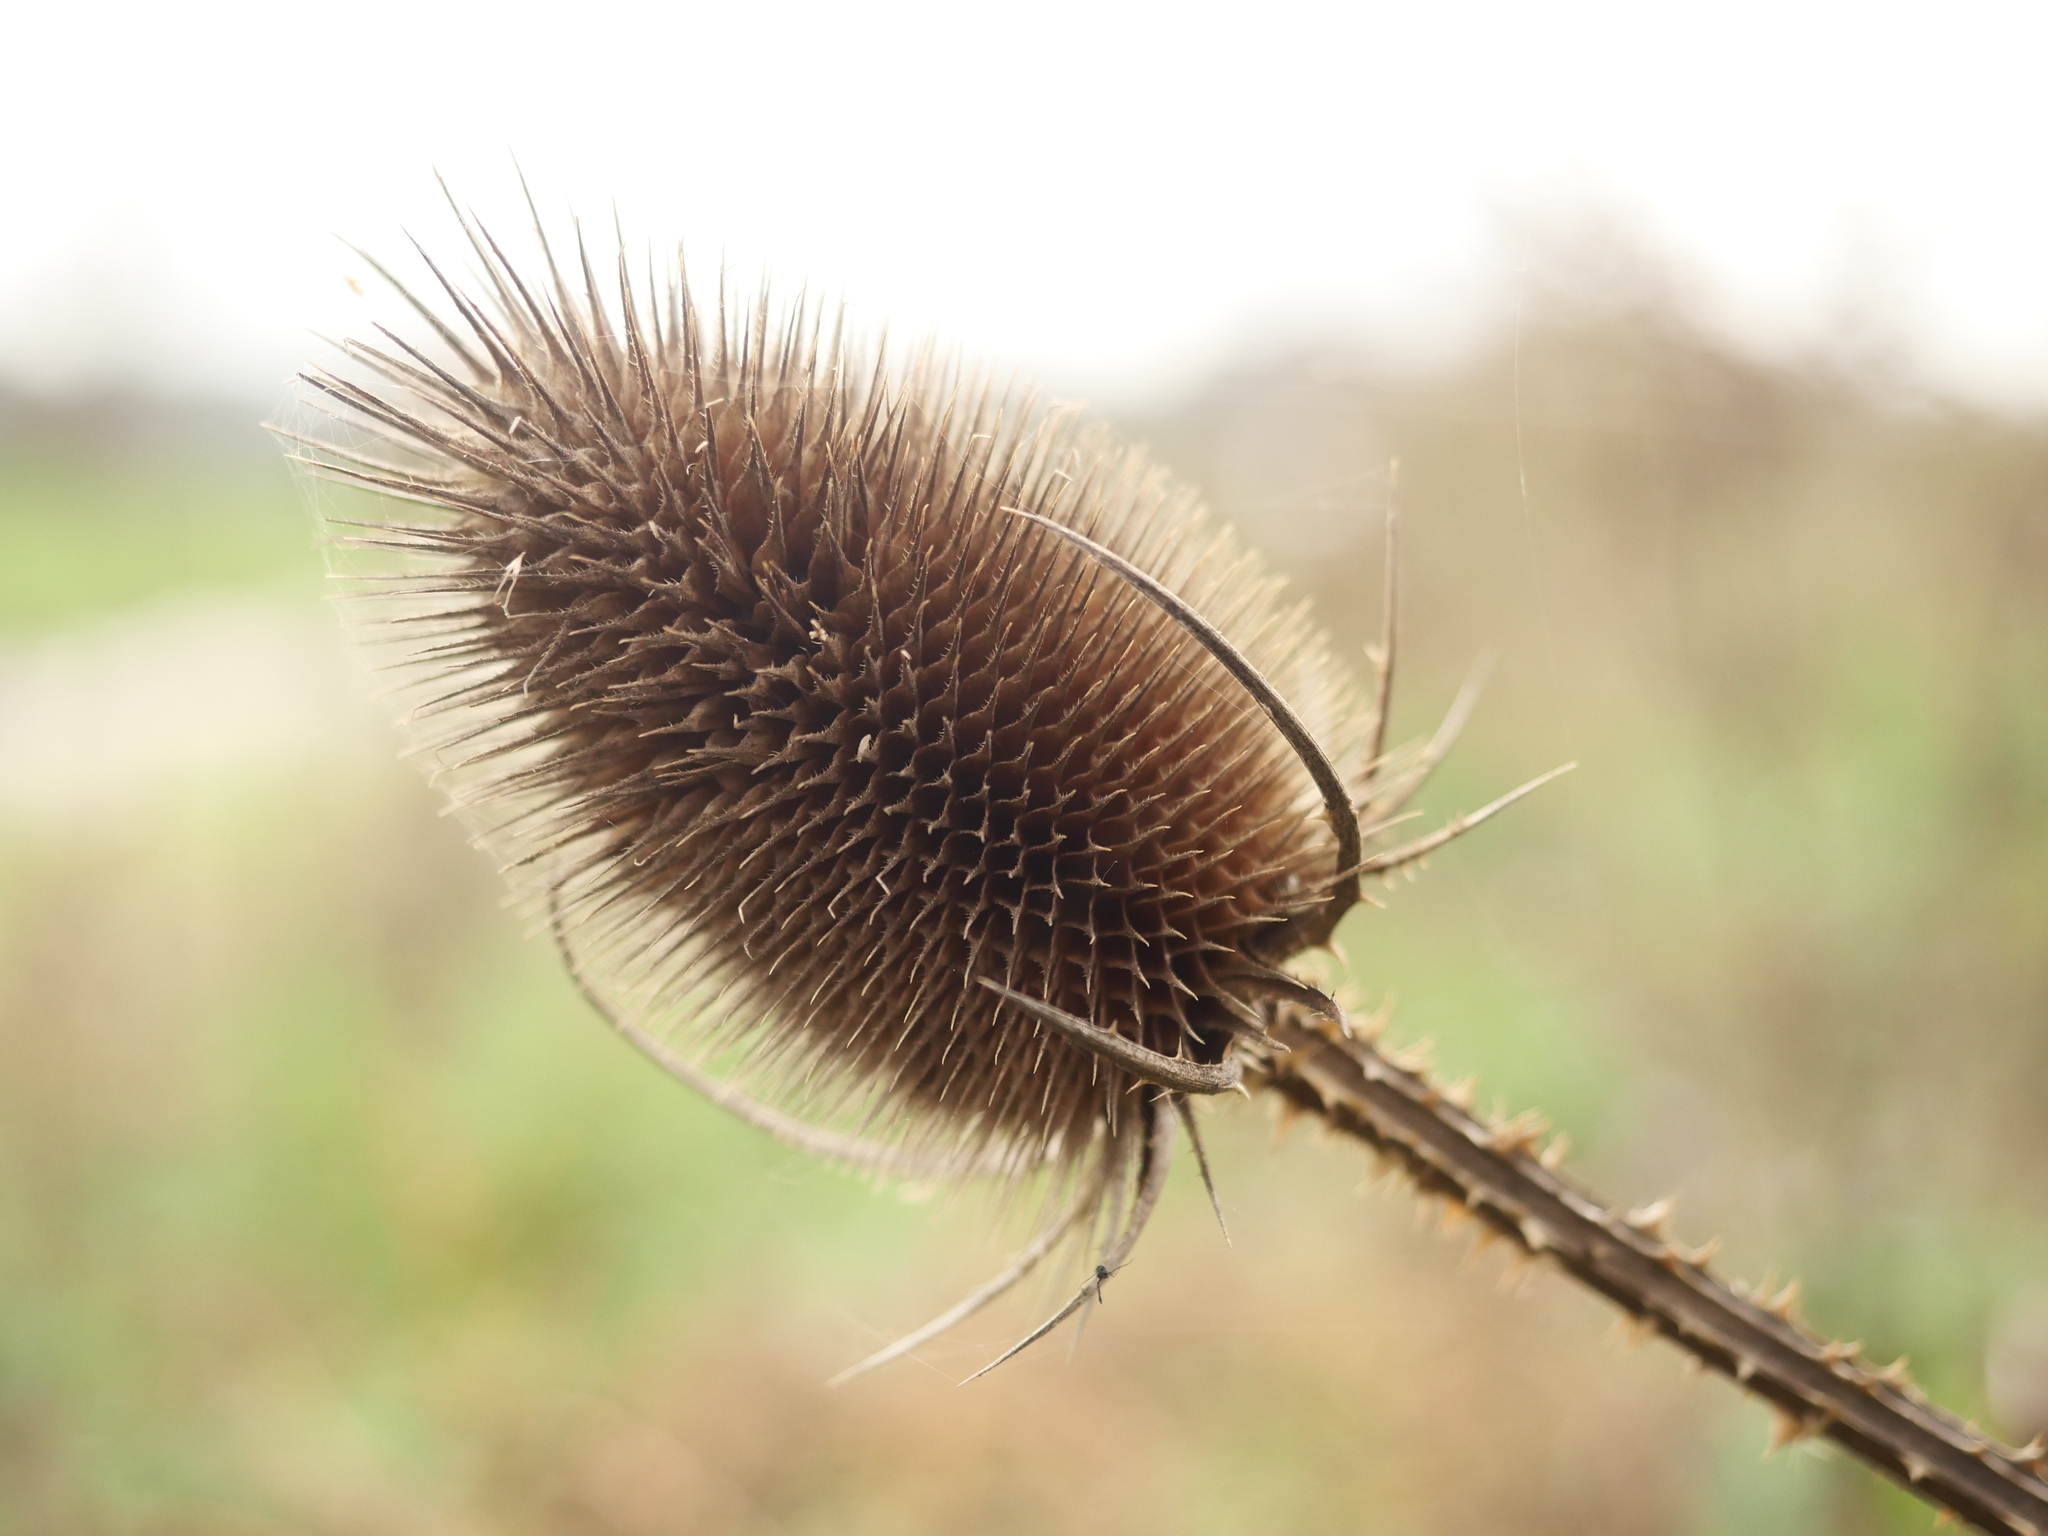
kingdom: Plantae
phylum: Tracheophyta
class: Magnoliopsida
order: Dipsacales
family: Caprifoliaceae
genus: Dipsacus
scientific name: Dipsacus fullonum
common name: Teasel
